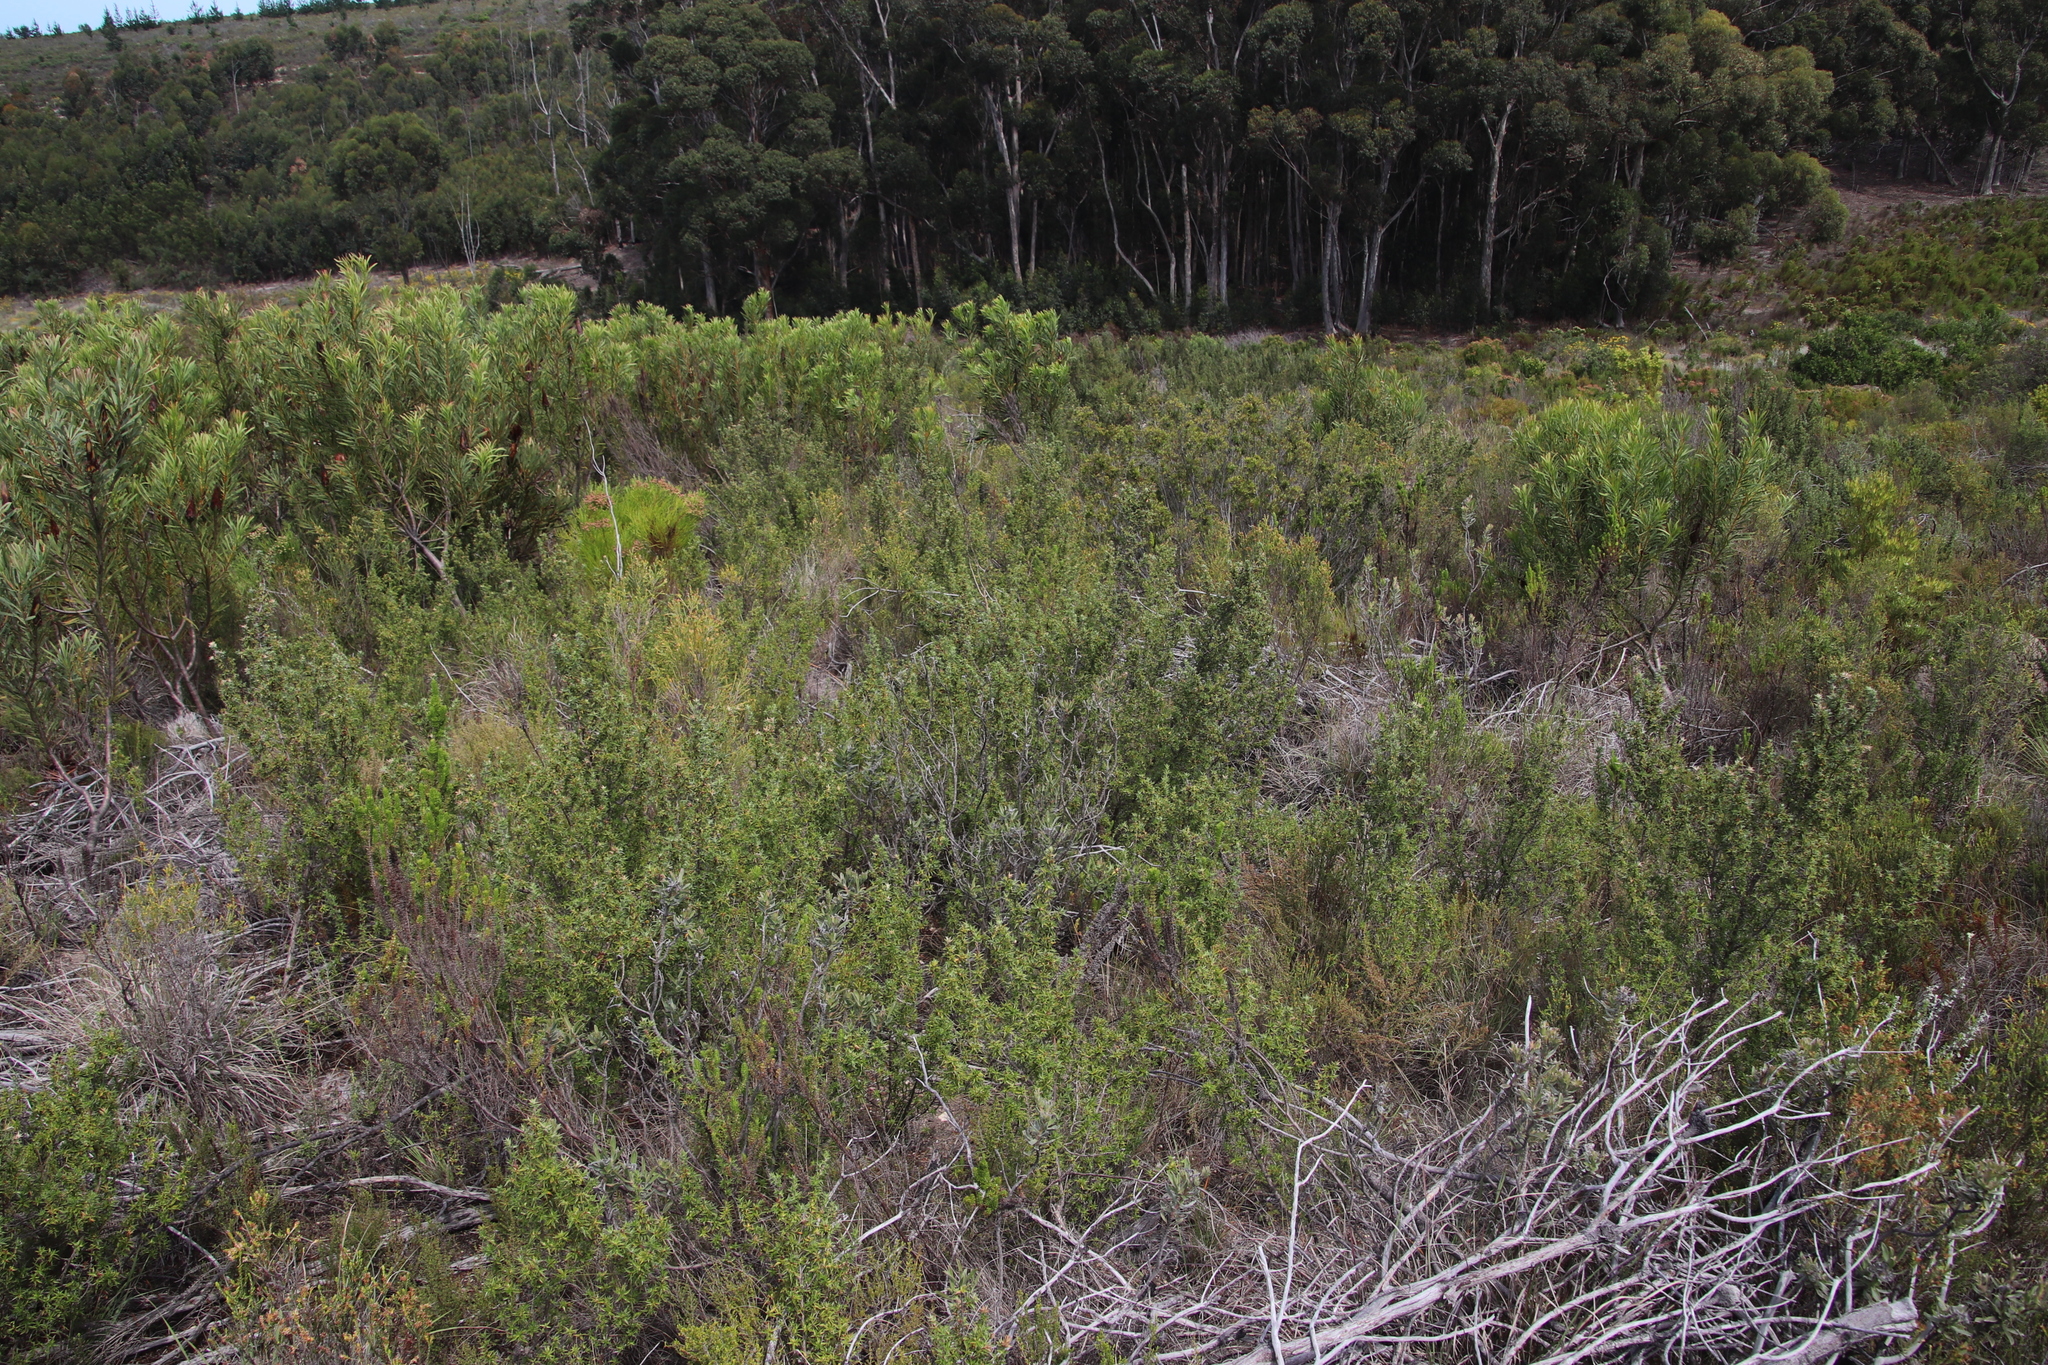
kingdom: Plantae
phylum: Tracheophyta
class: Magnoliopsida
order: Rosales
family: Rosaceae
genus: Cliffortia
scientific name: Cliffortia ruscifolia
